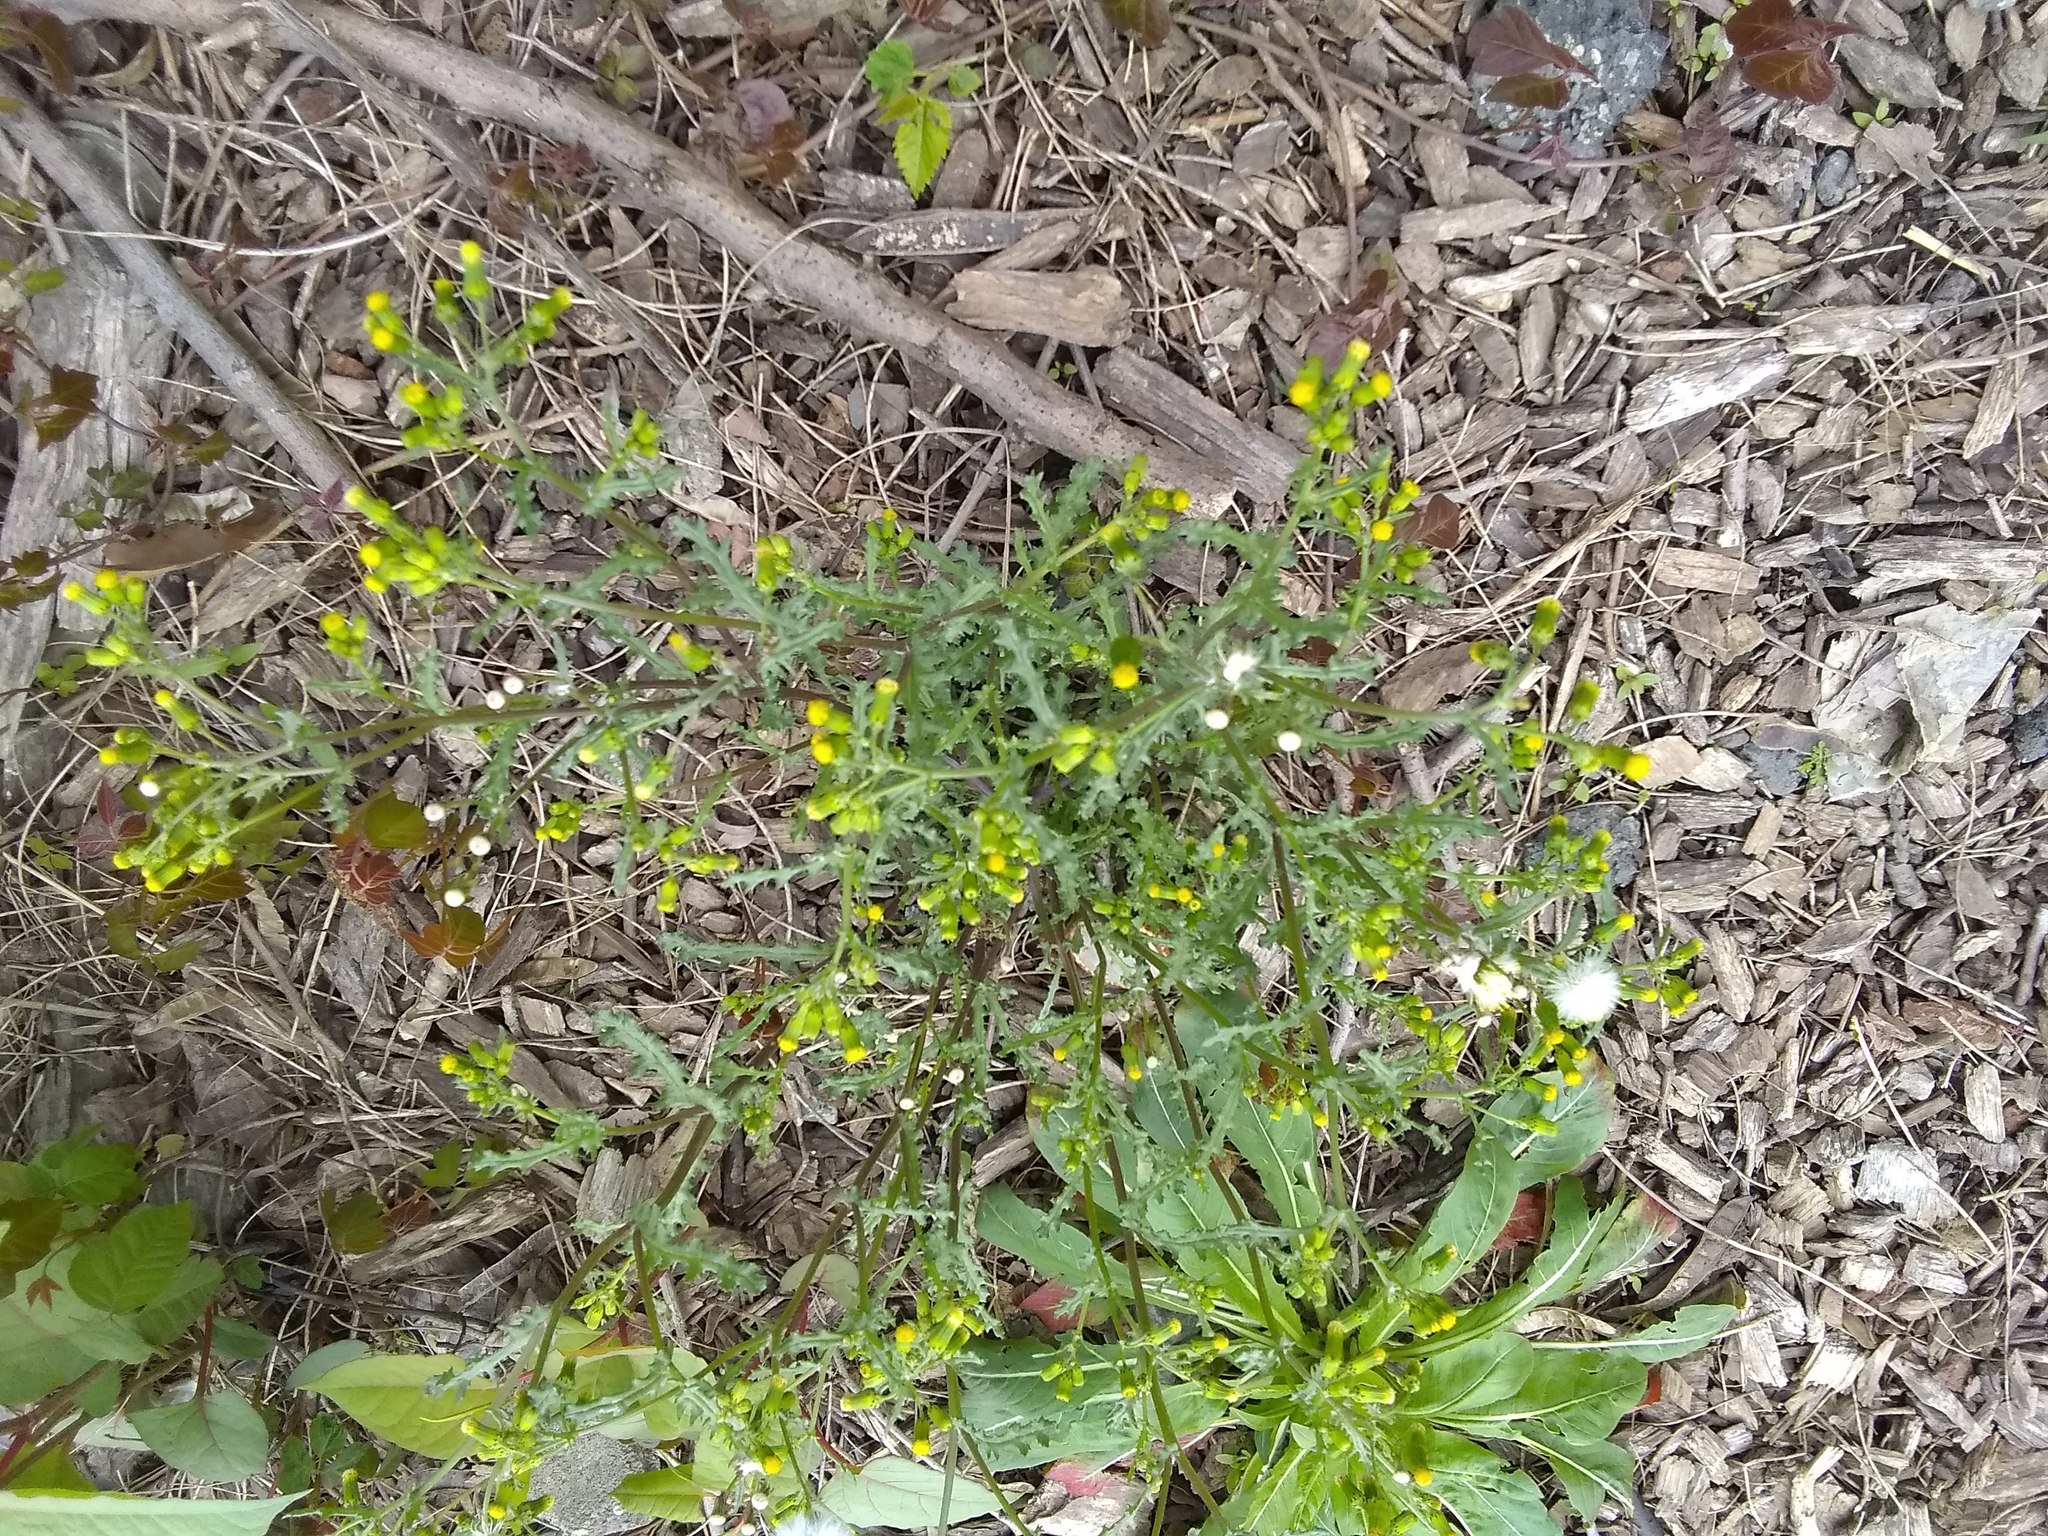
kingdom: Plantae
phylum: Tracheophyta
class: Magnoliopsida
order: Asterales
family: Asteraceae
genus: Senecio
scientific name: Senecio vulgaris
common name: Old-man-in-the-spring
